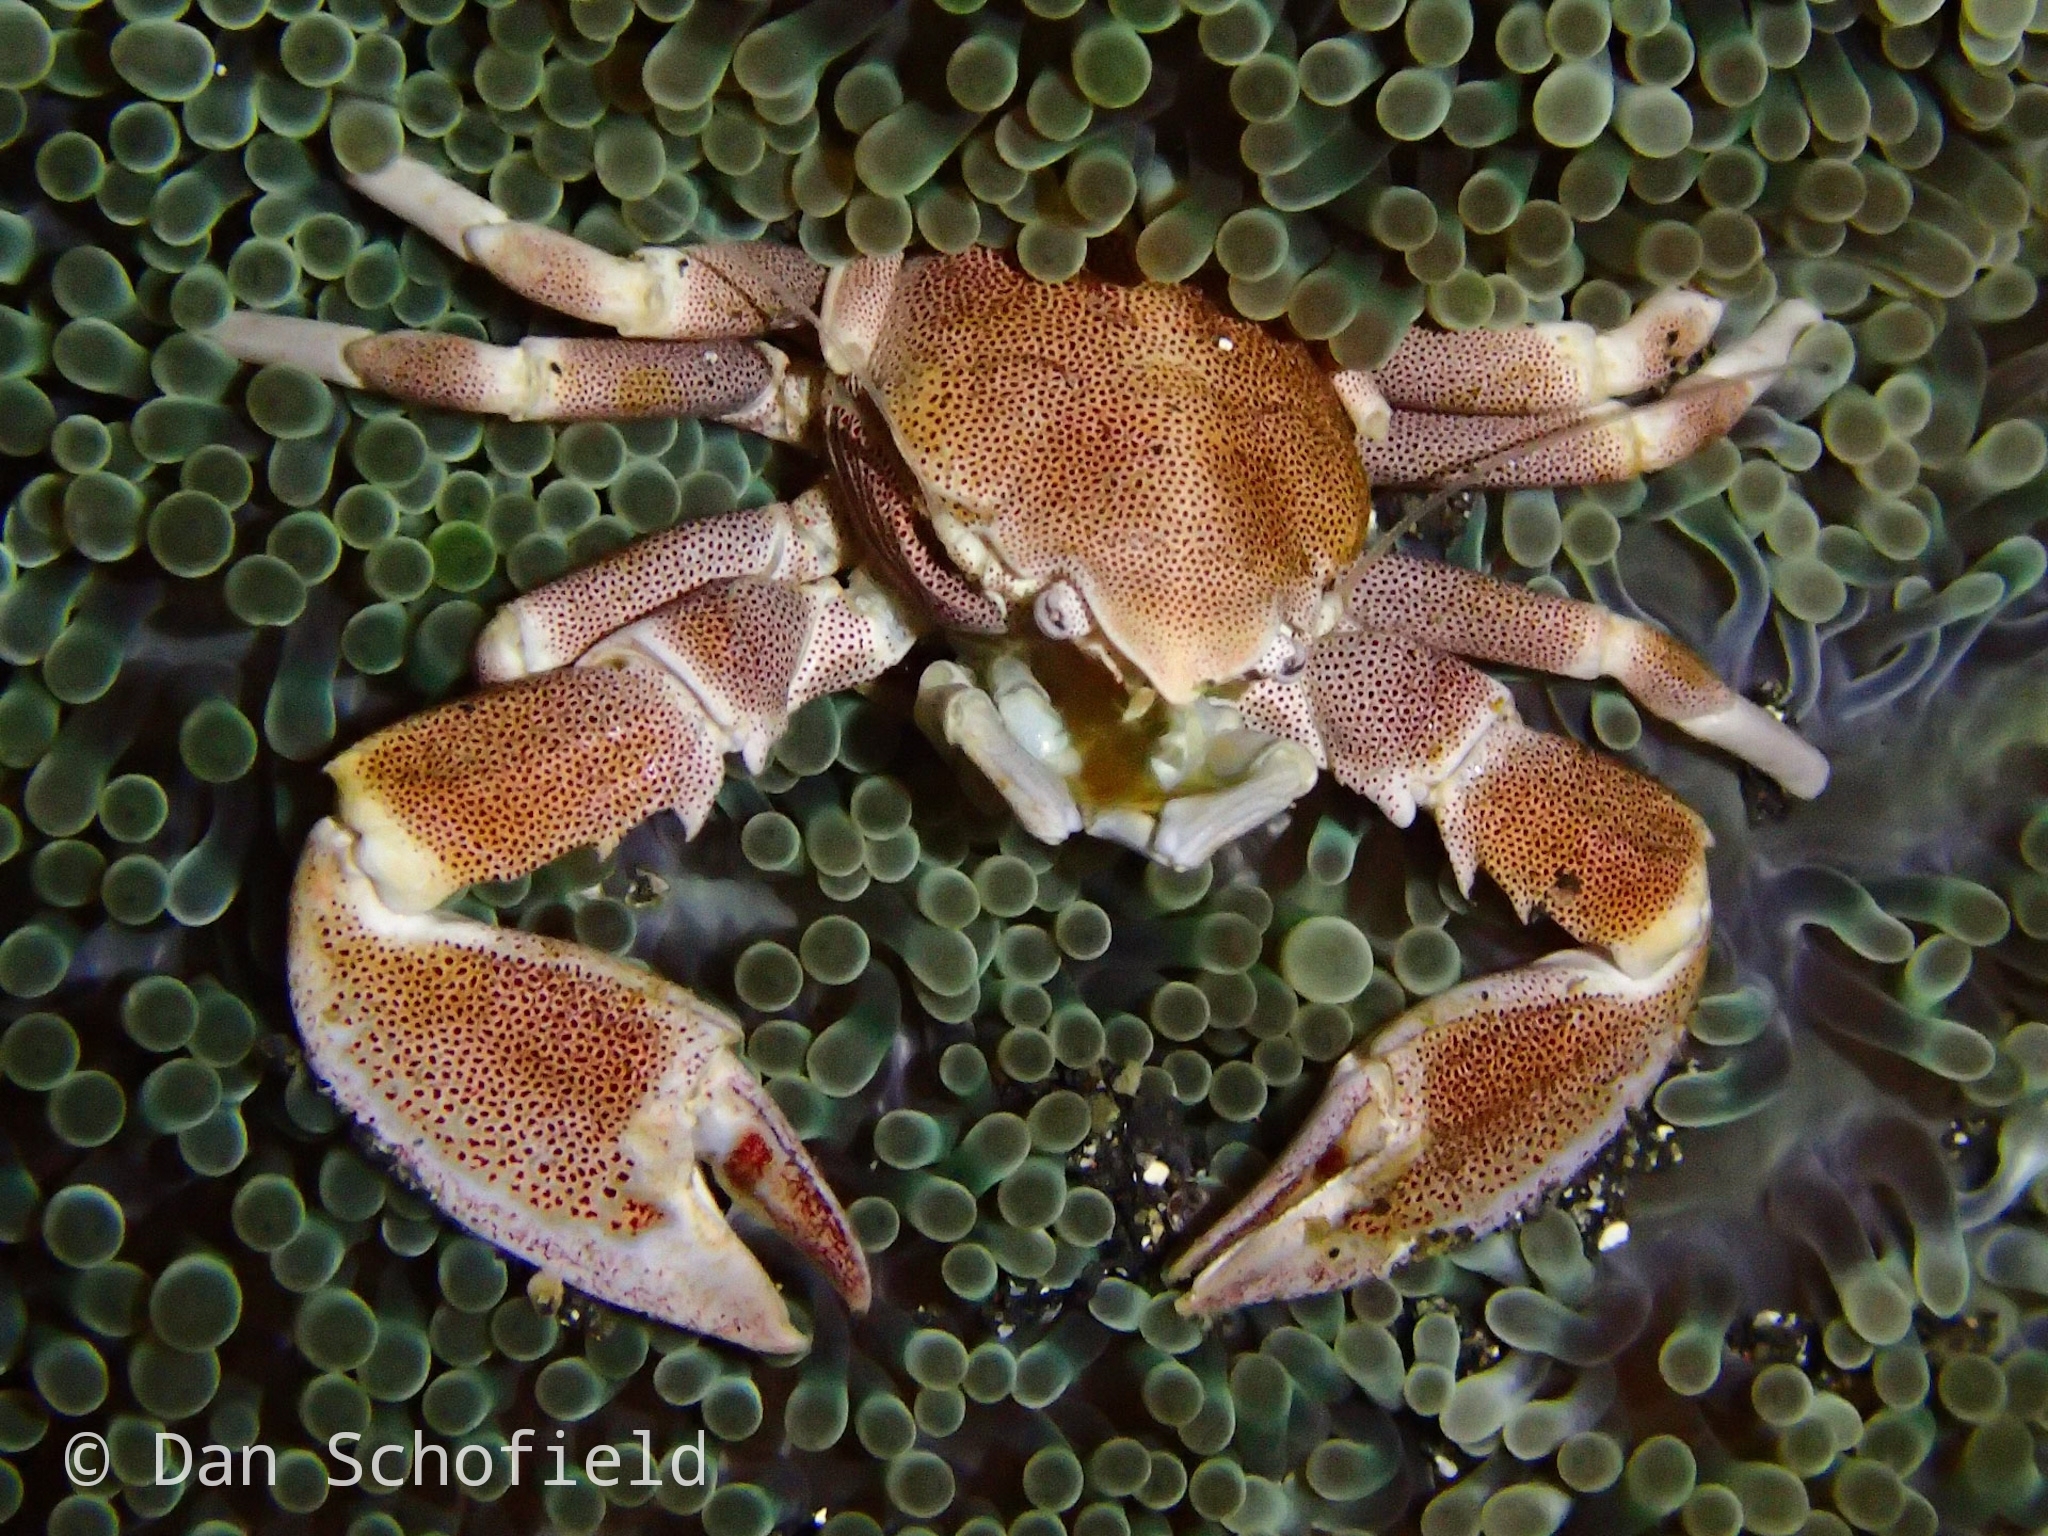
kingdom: Animalia
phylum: Arthropoda
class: Malacostraca
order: Decapoda
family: Porcellanidae
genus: Neopetrolisthes
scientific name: Neopetrolisthes maculatus
